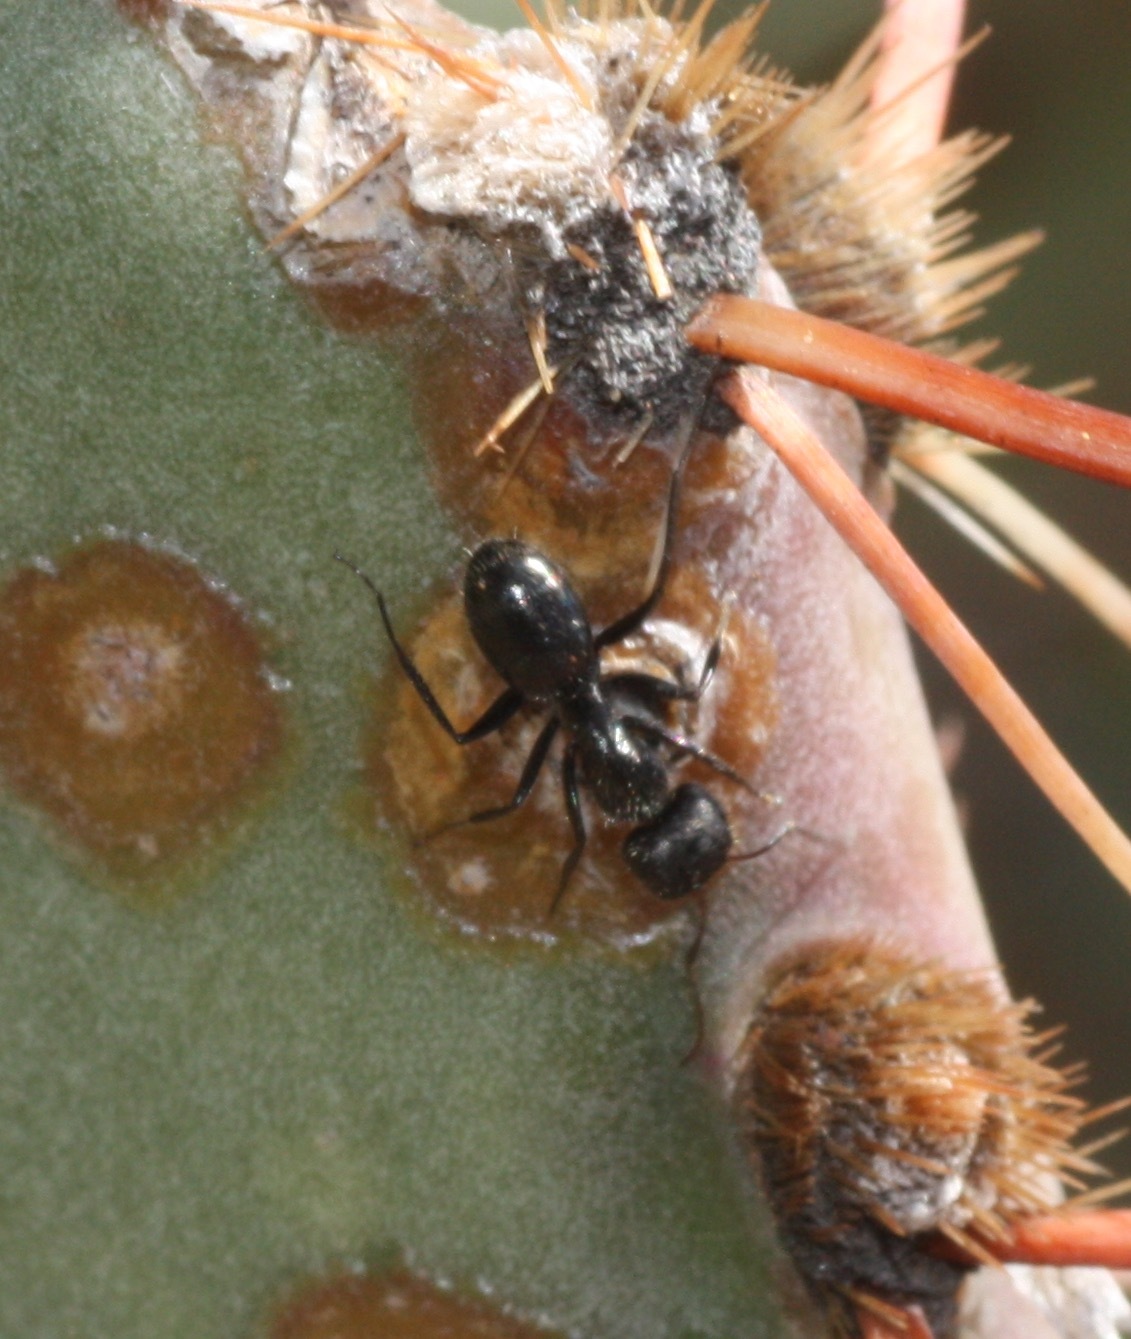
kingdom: Animalia
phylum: Arthropoda
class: Insecta
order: Hymenoptera
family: Formicidae
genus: Camponotus
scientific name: Camponotus mina
